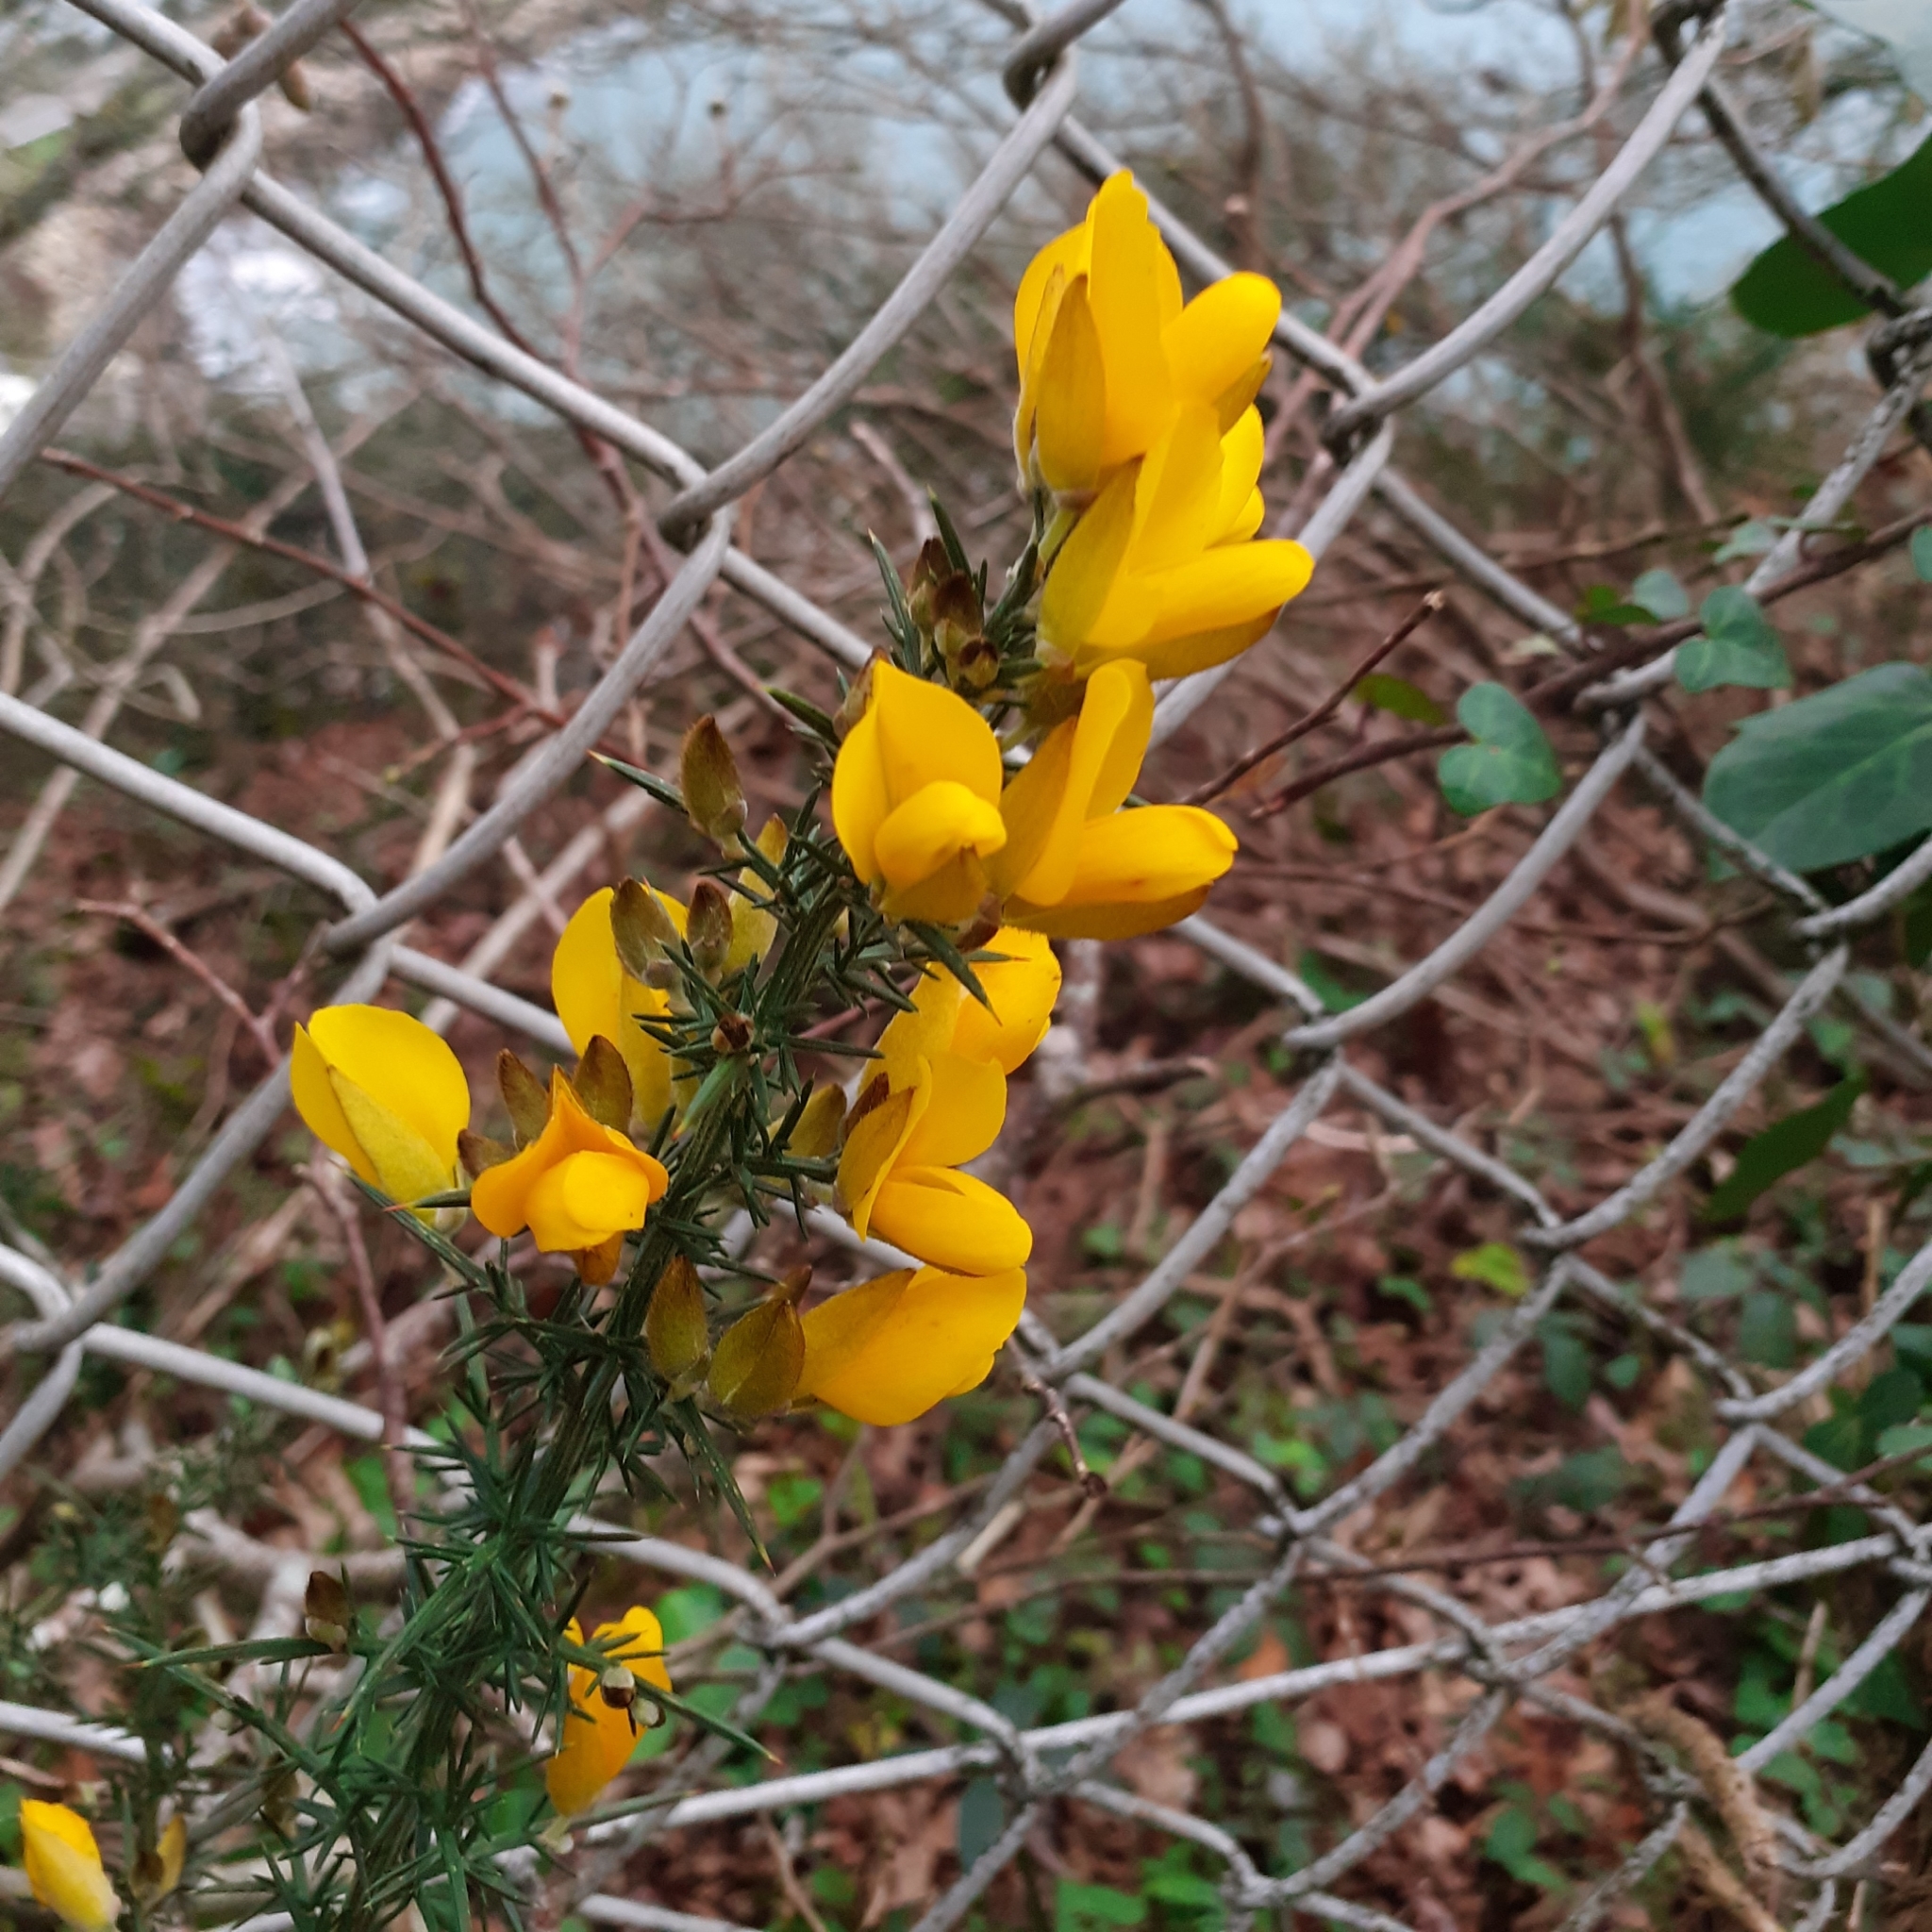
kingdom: Plantae
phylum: Tracheophyta
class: Magnoliopsida
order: Fabales
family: Fabaceae
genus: Ulex
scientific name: Ulex europaeus
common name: Common gorse
